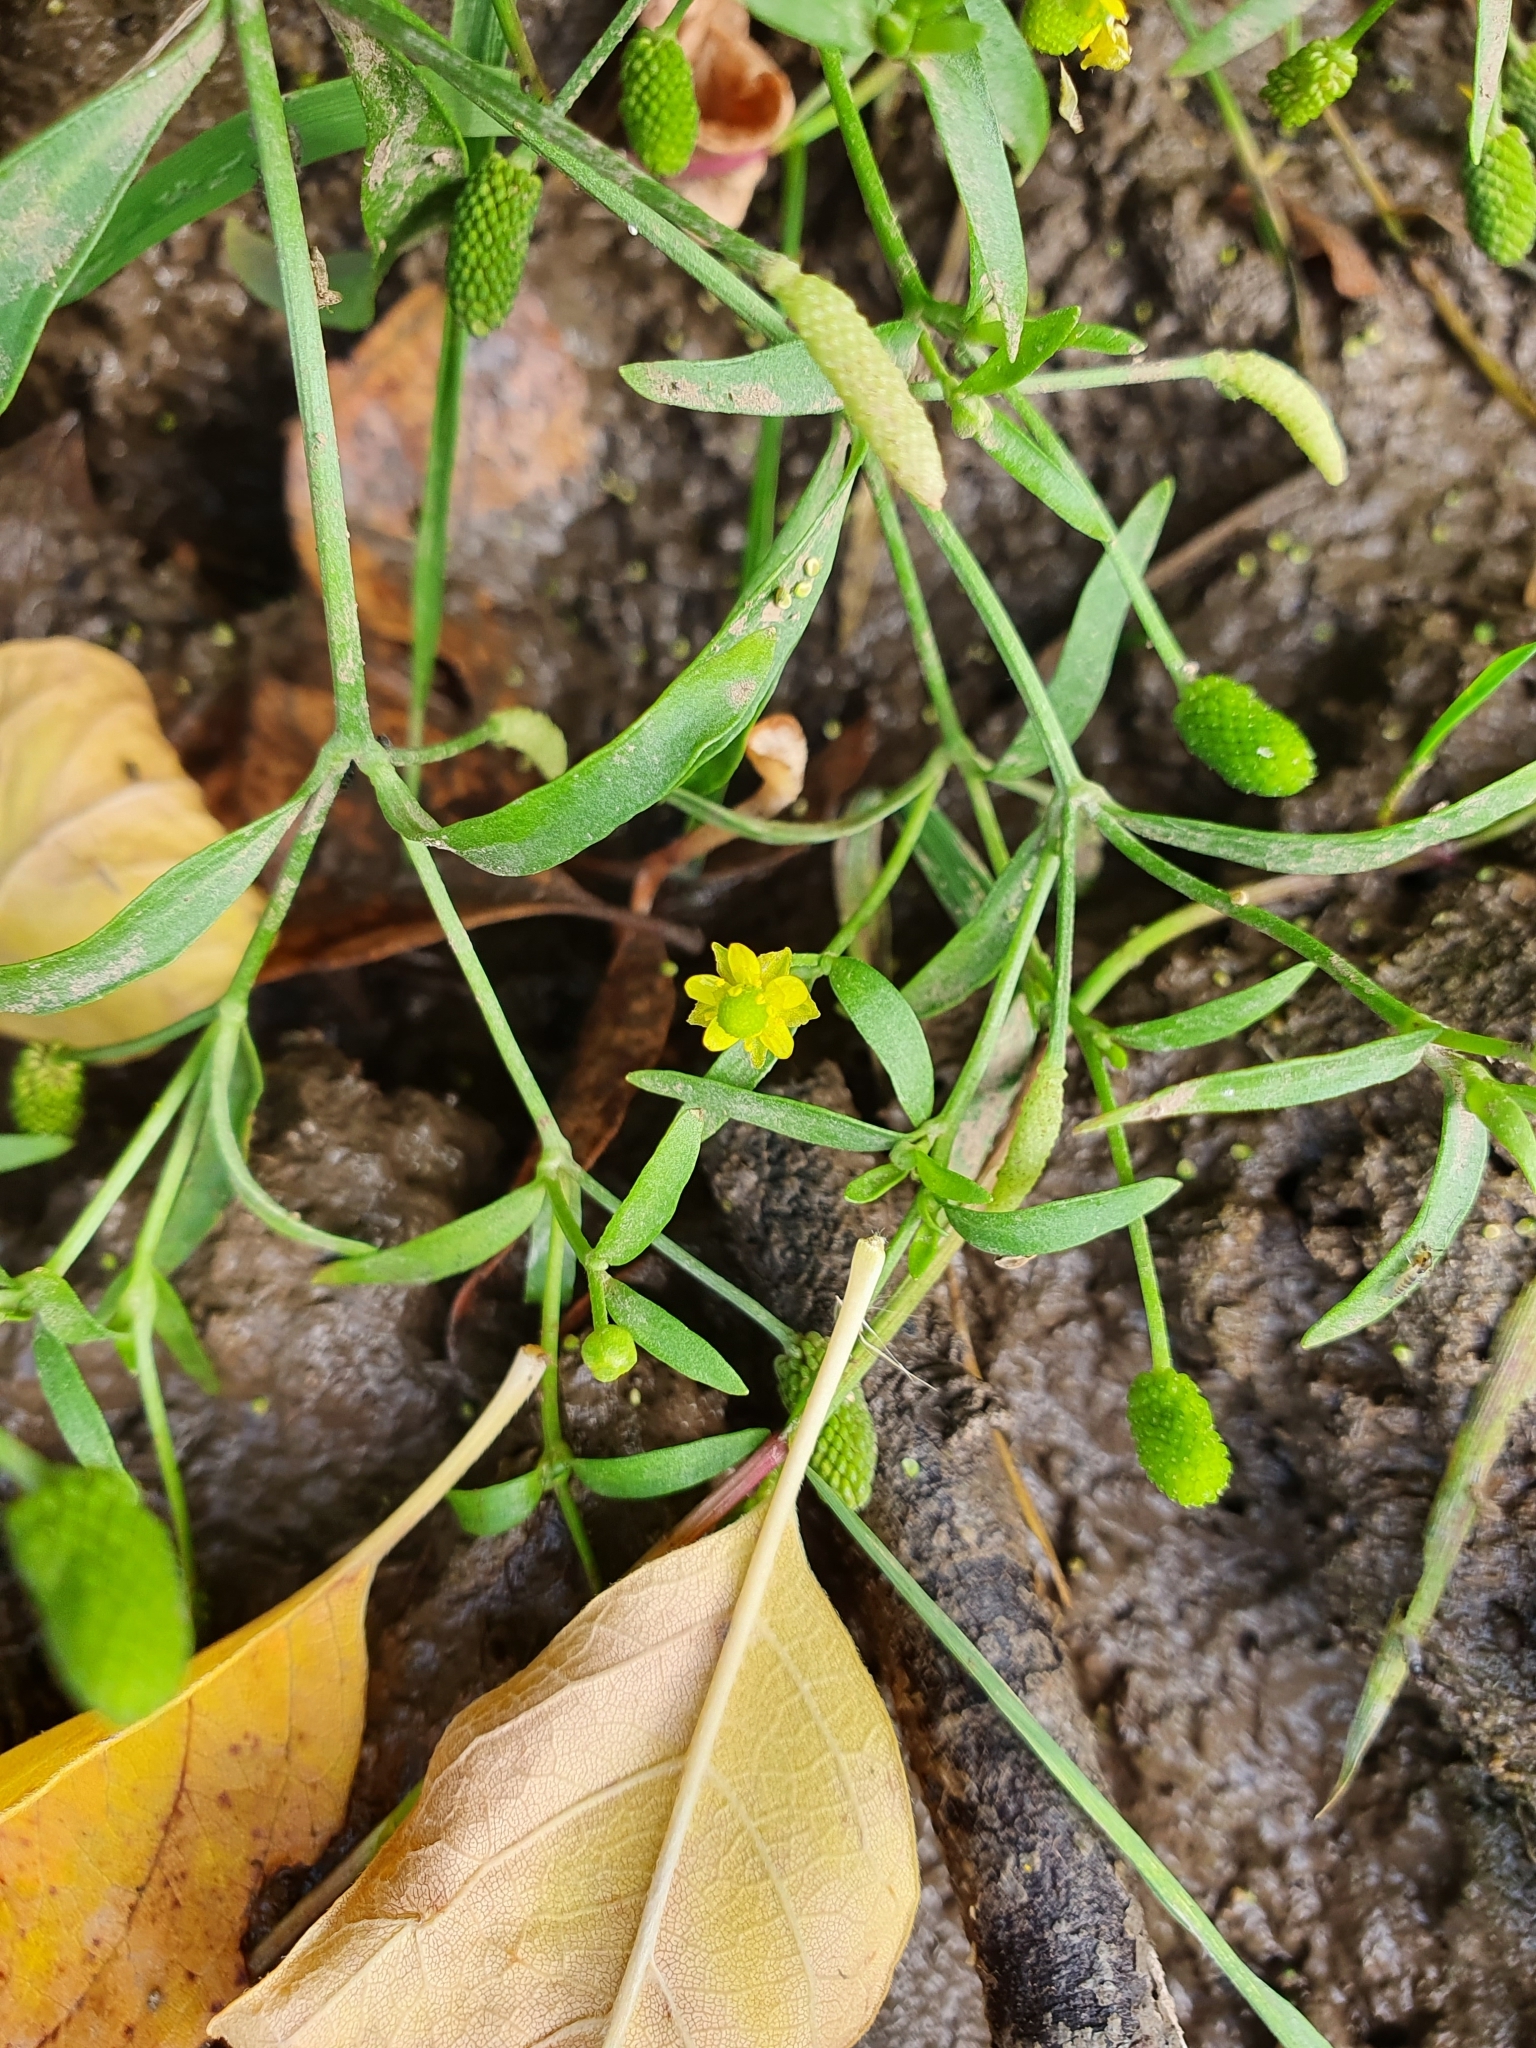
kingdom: Plantae
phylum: Tracheophyta
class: Magnoliopsida
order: Ranunculales
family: Ranunculaceae
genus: Ranunculus
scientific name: Ranunculus sceleratus
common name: Celery-leaved buttercup
